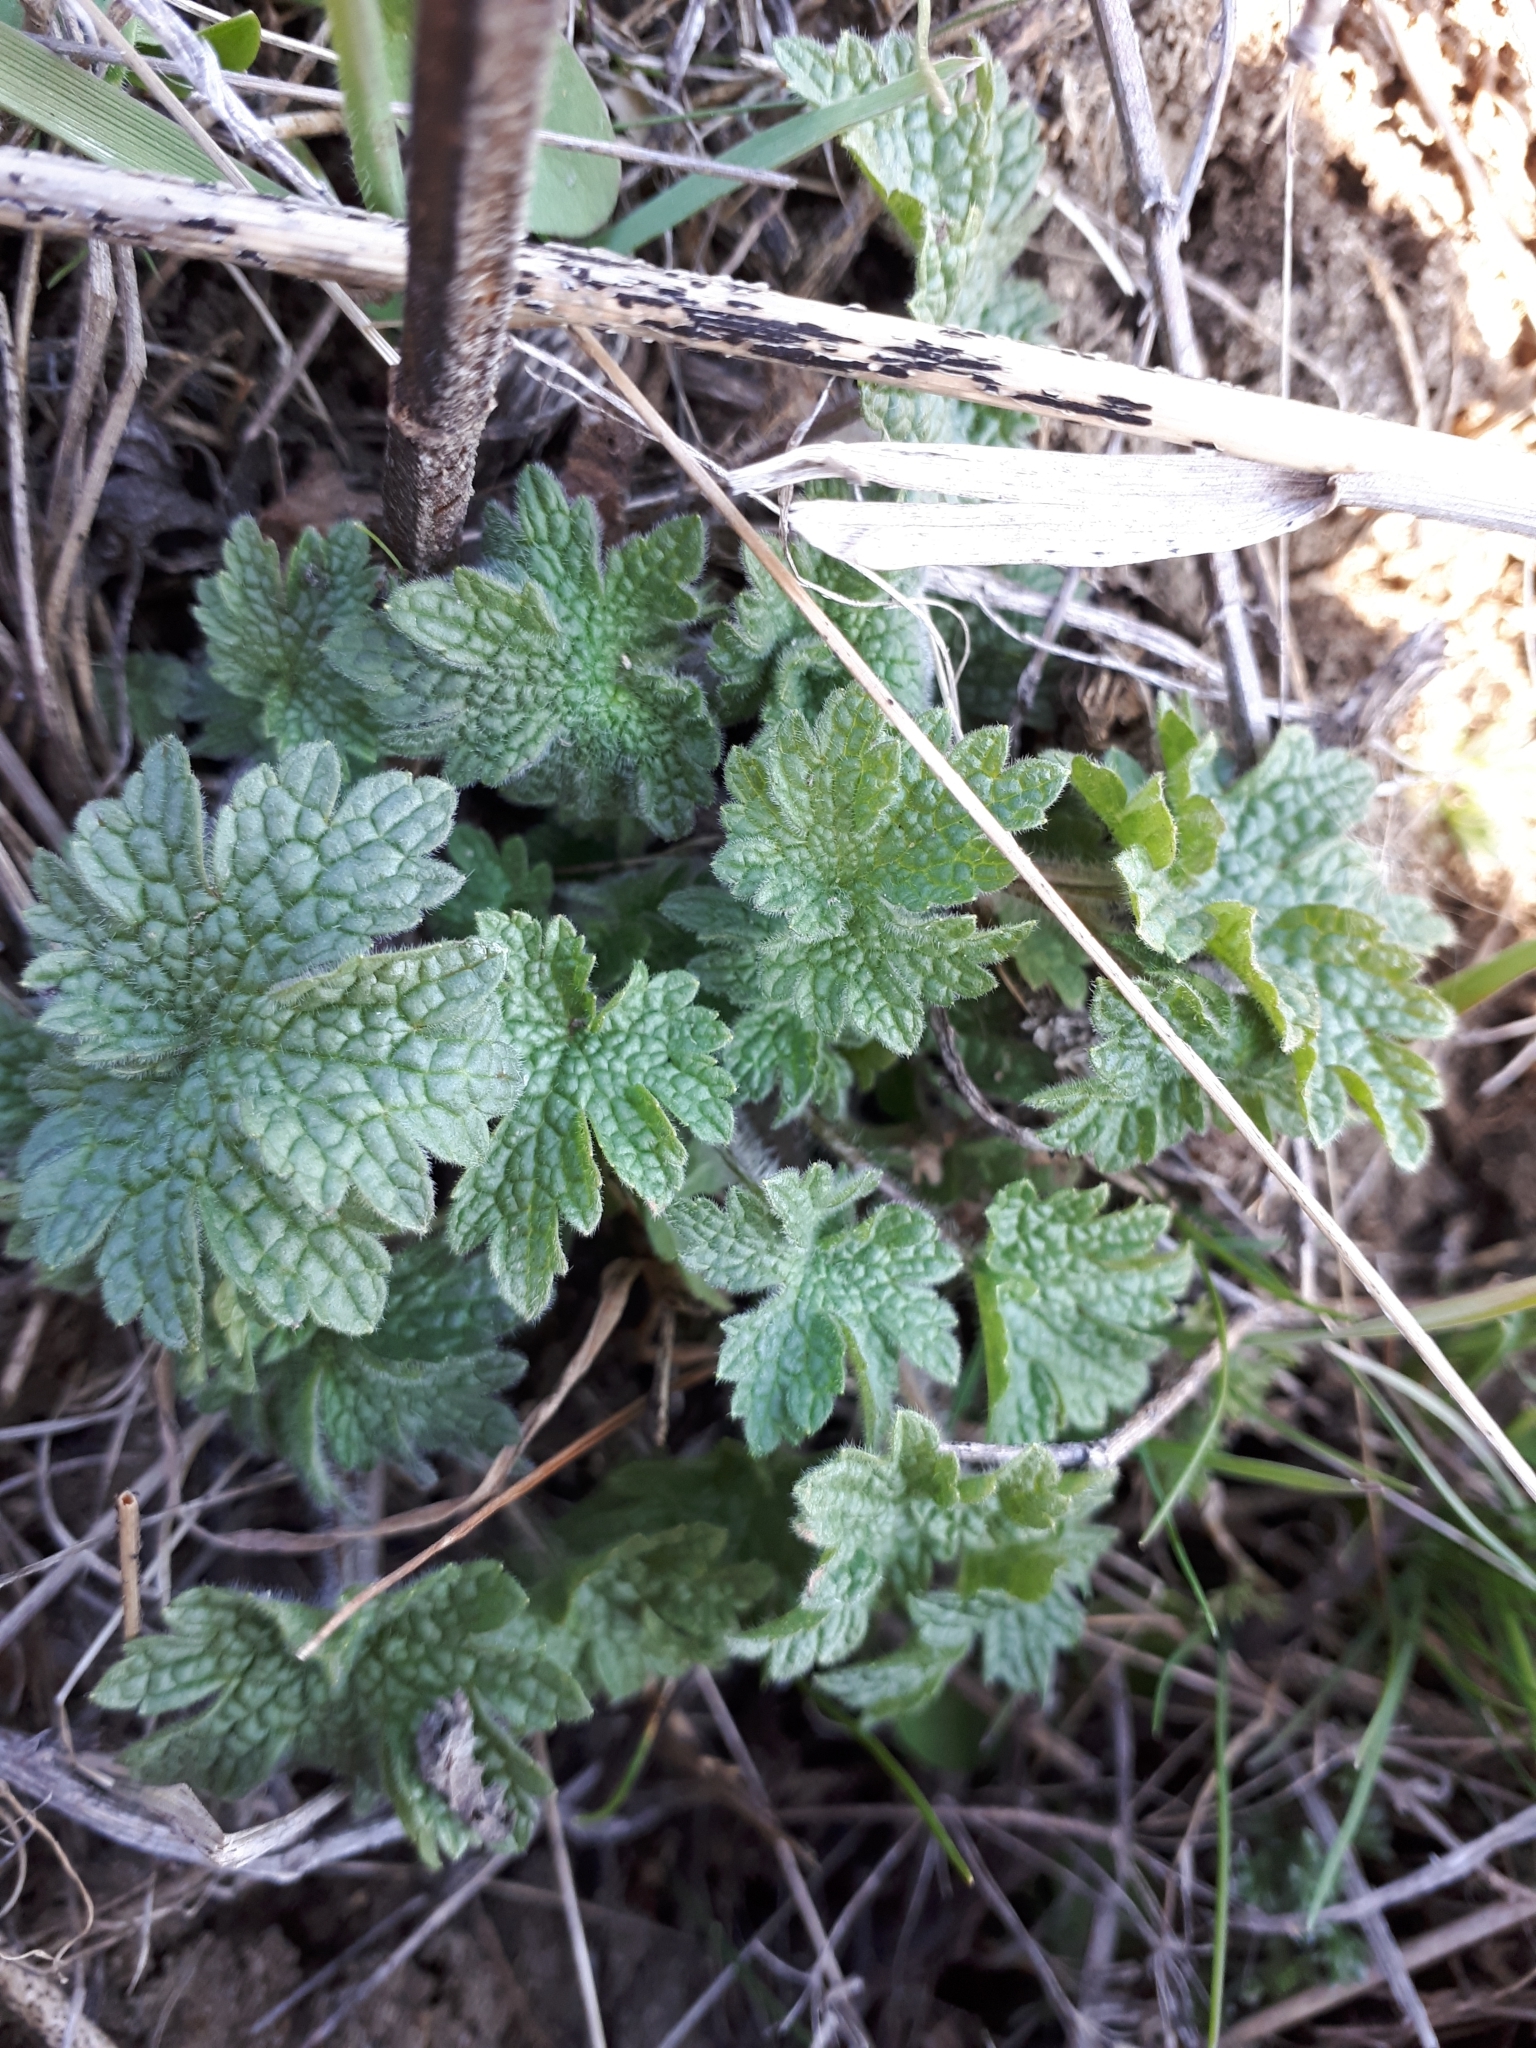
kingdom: Plantae
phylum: Tracheophyta
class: Magnoliopsida
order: Lamiales
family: Lamiaceae
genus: Leonurus
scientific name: Leonurus quinquelobatus
